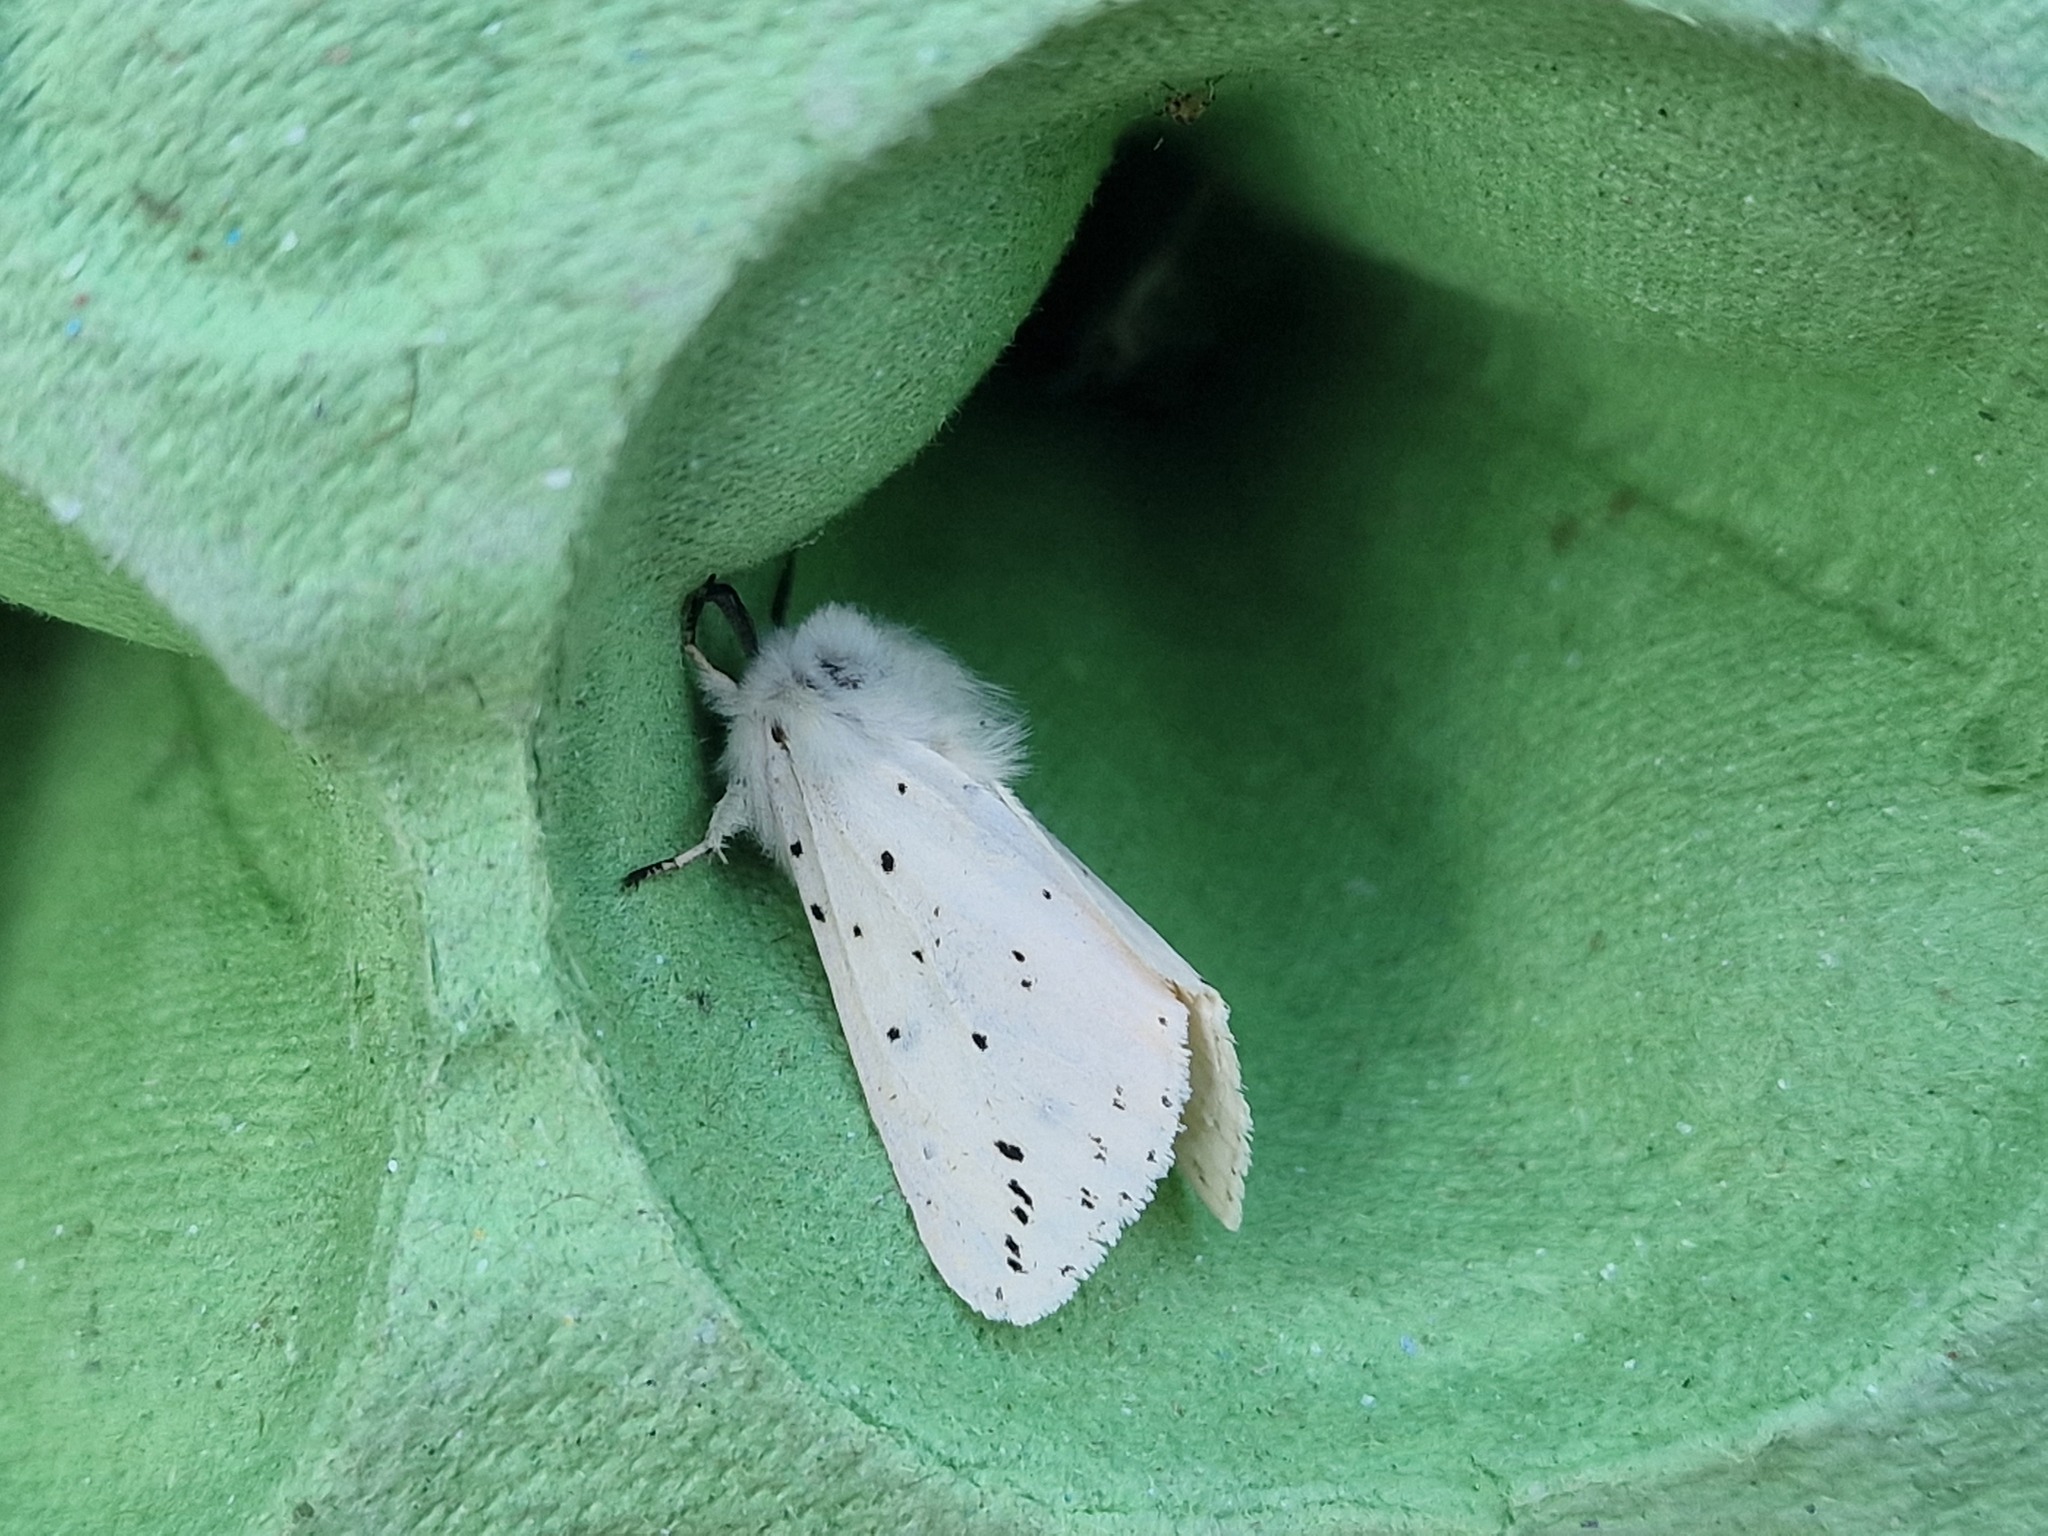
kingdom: Animalia
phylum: Arthropoda
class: Insecta
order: Lepidoptera
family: Erebidae
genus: Spilosoma
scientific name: Spilosoma lubricipeda
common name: White ermine
